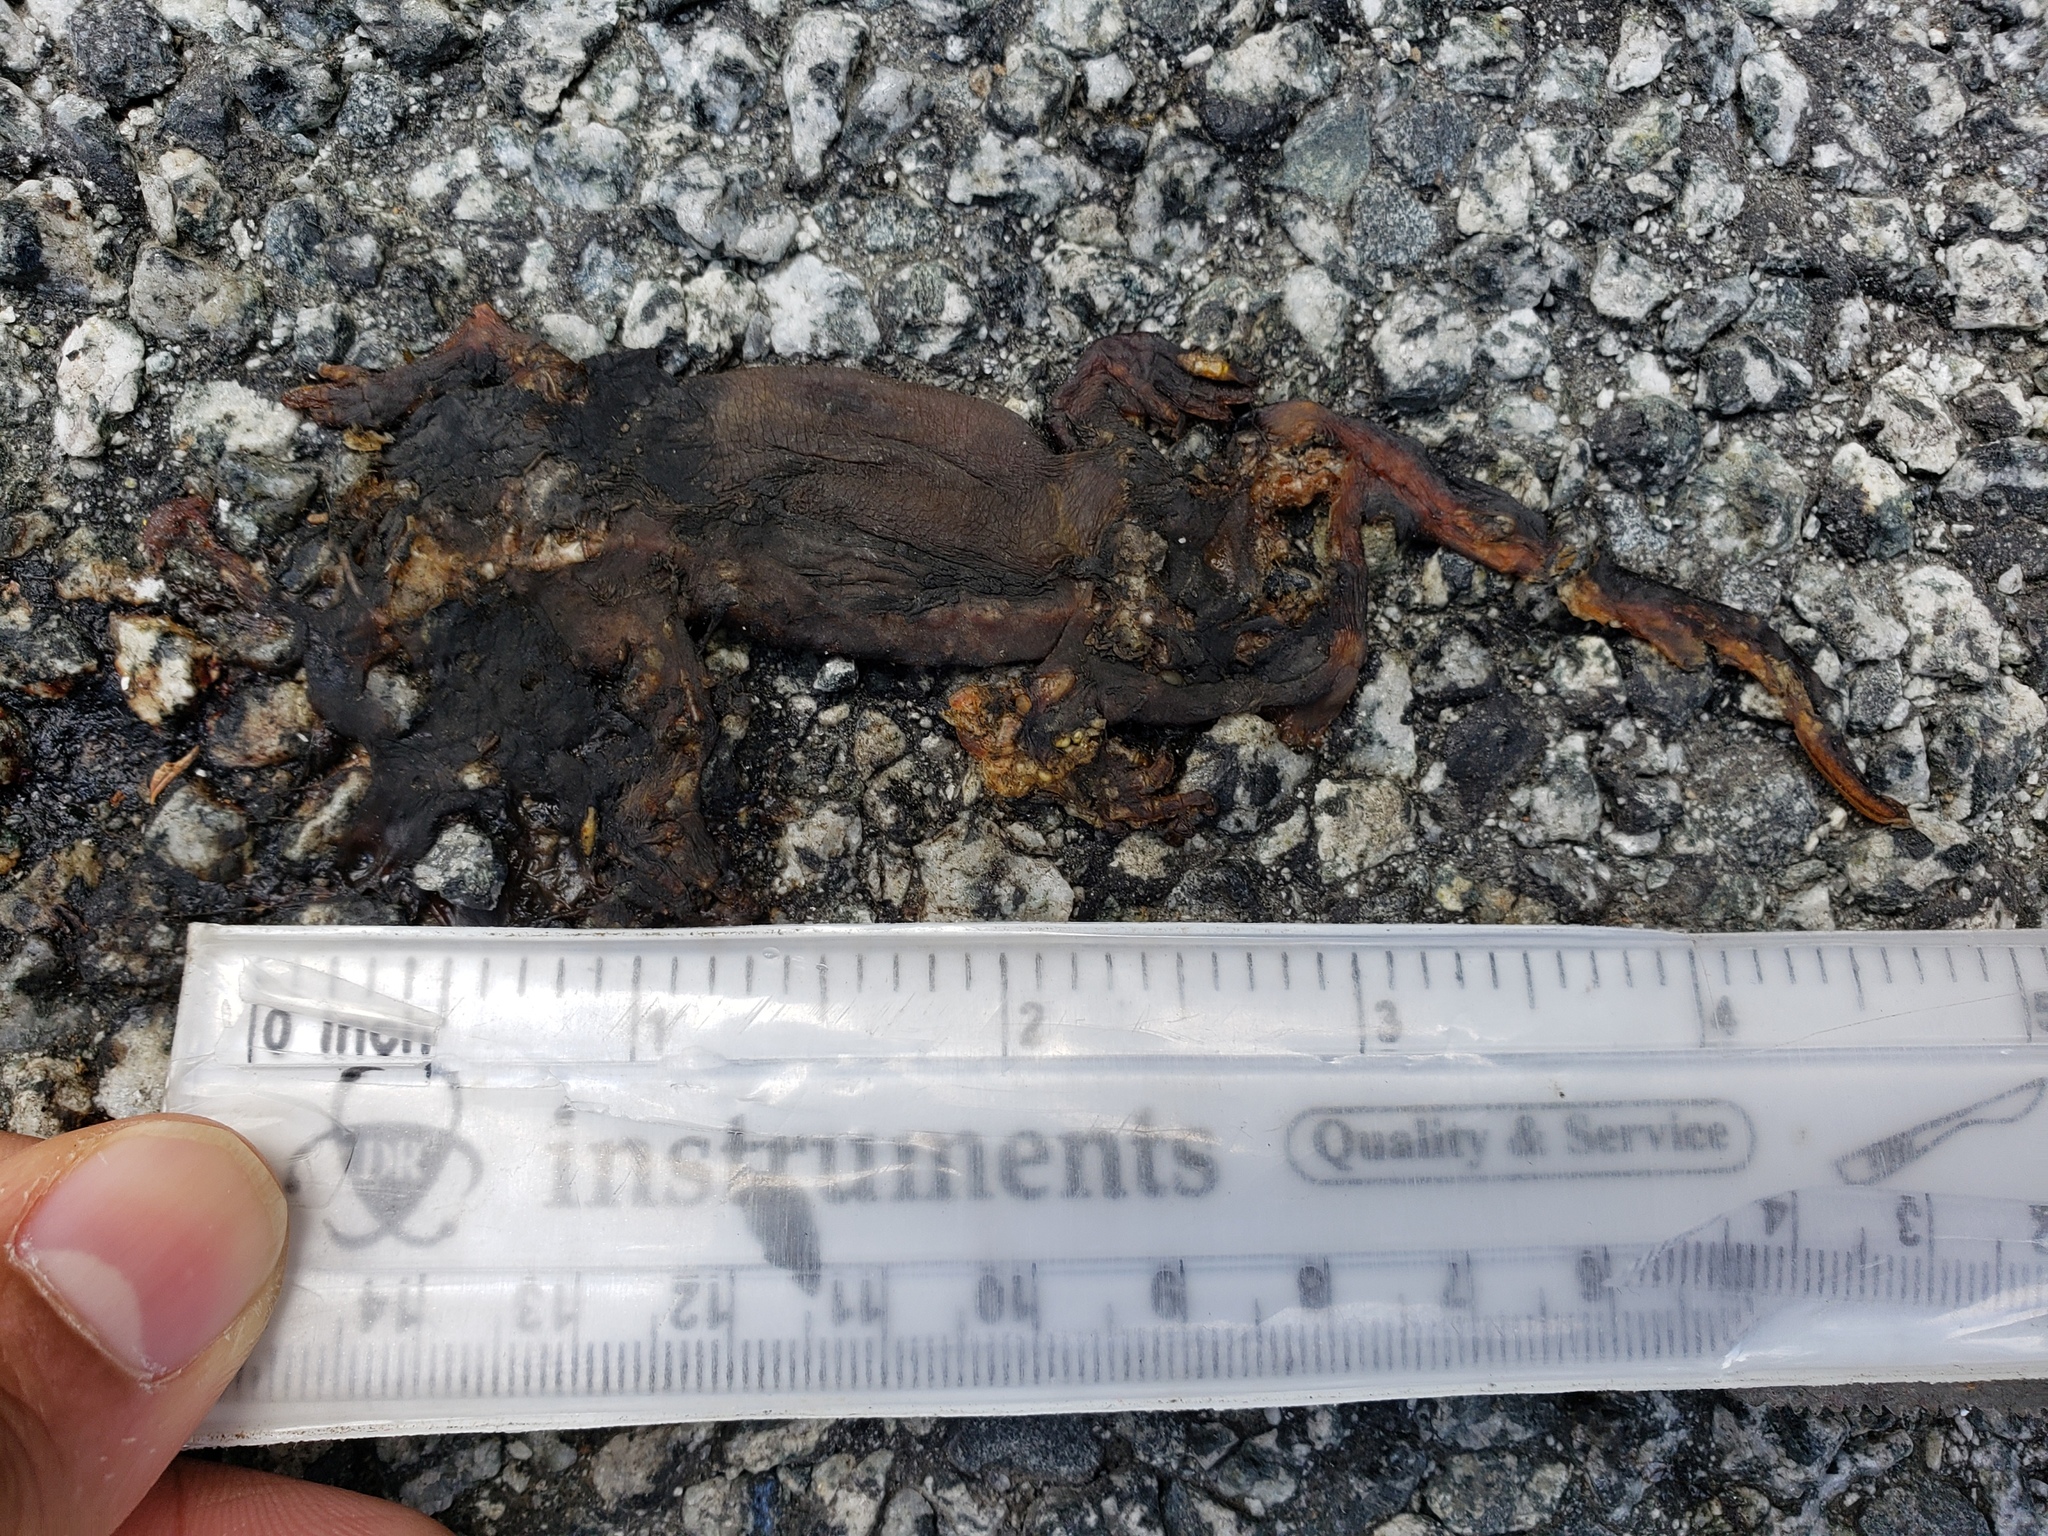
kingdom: Animalia
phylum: Chordata
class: Amphibia
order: Caudata
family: Salamandridae
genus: Taricha
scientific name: Taricha
